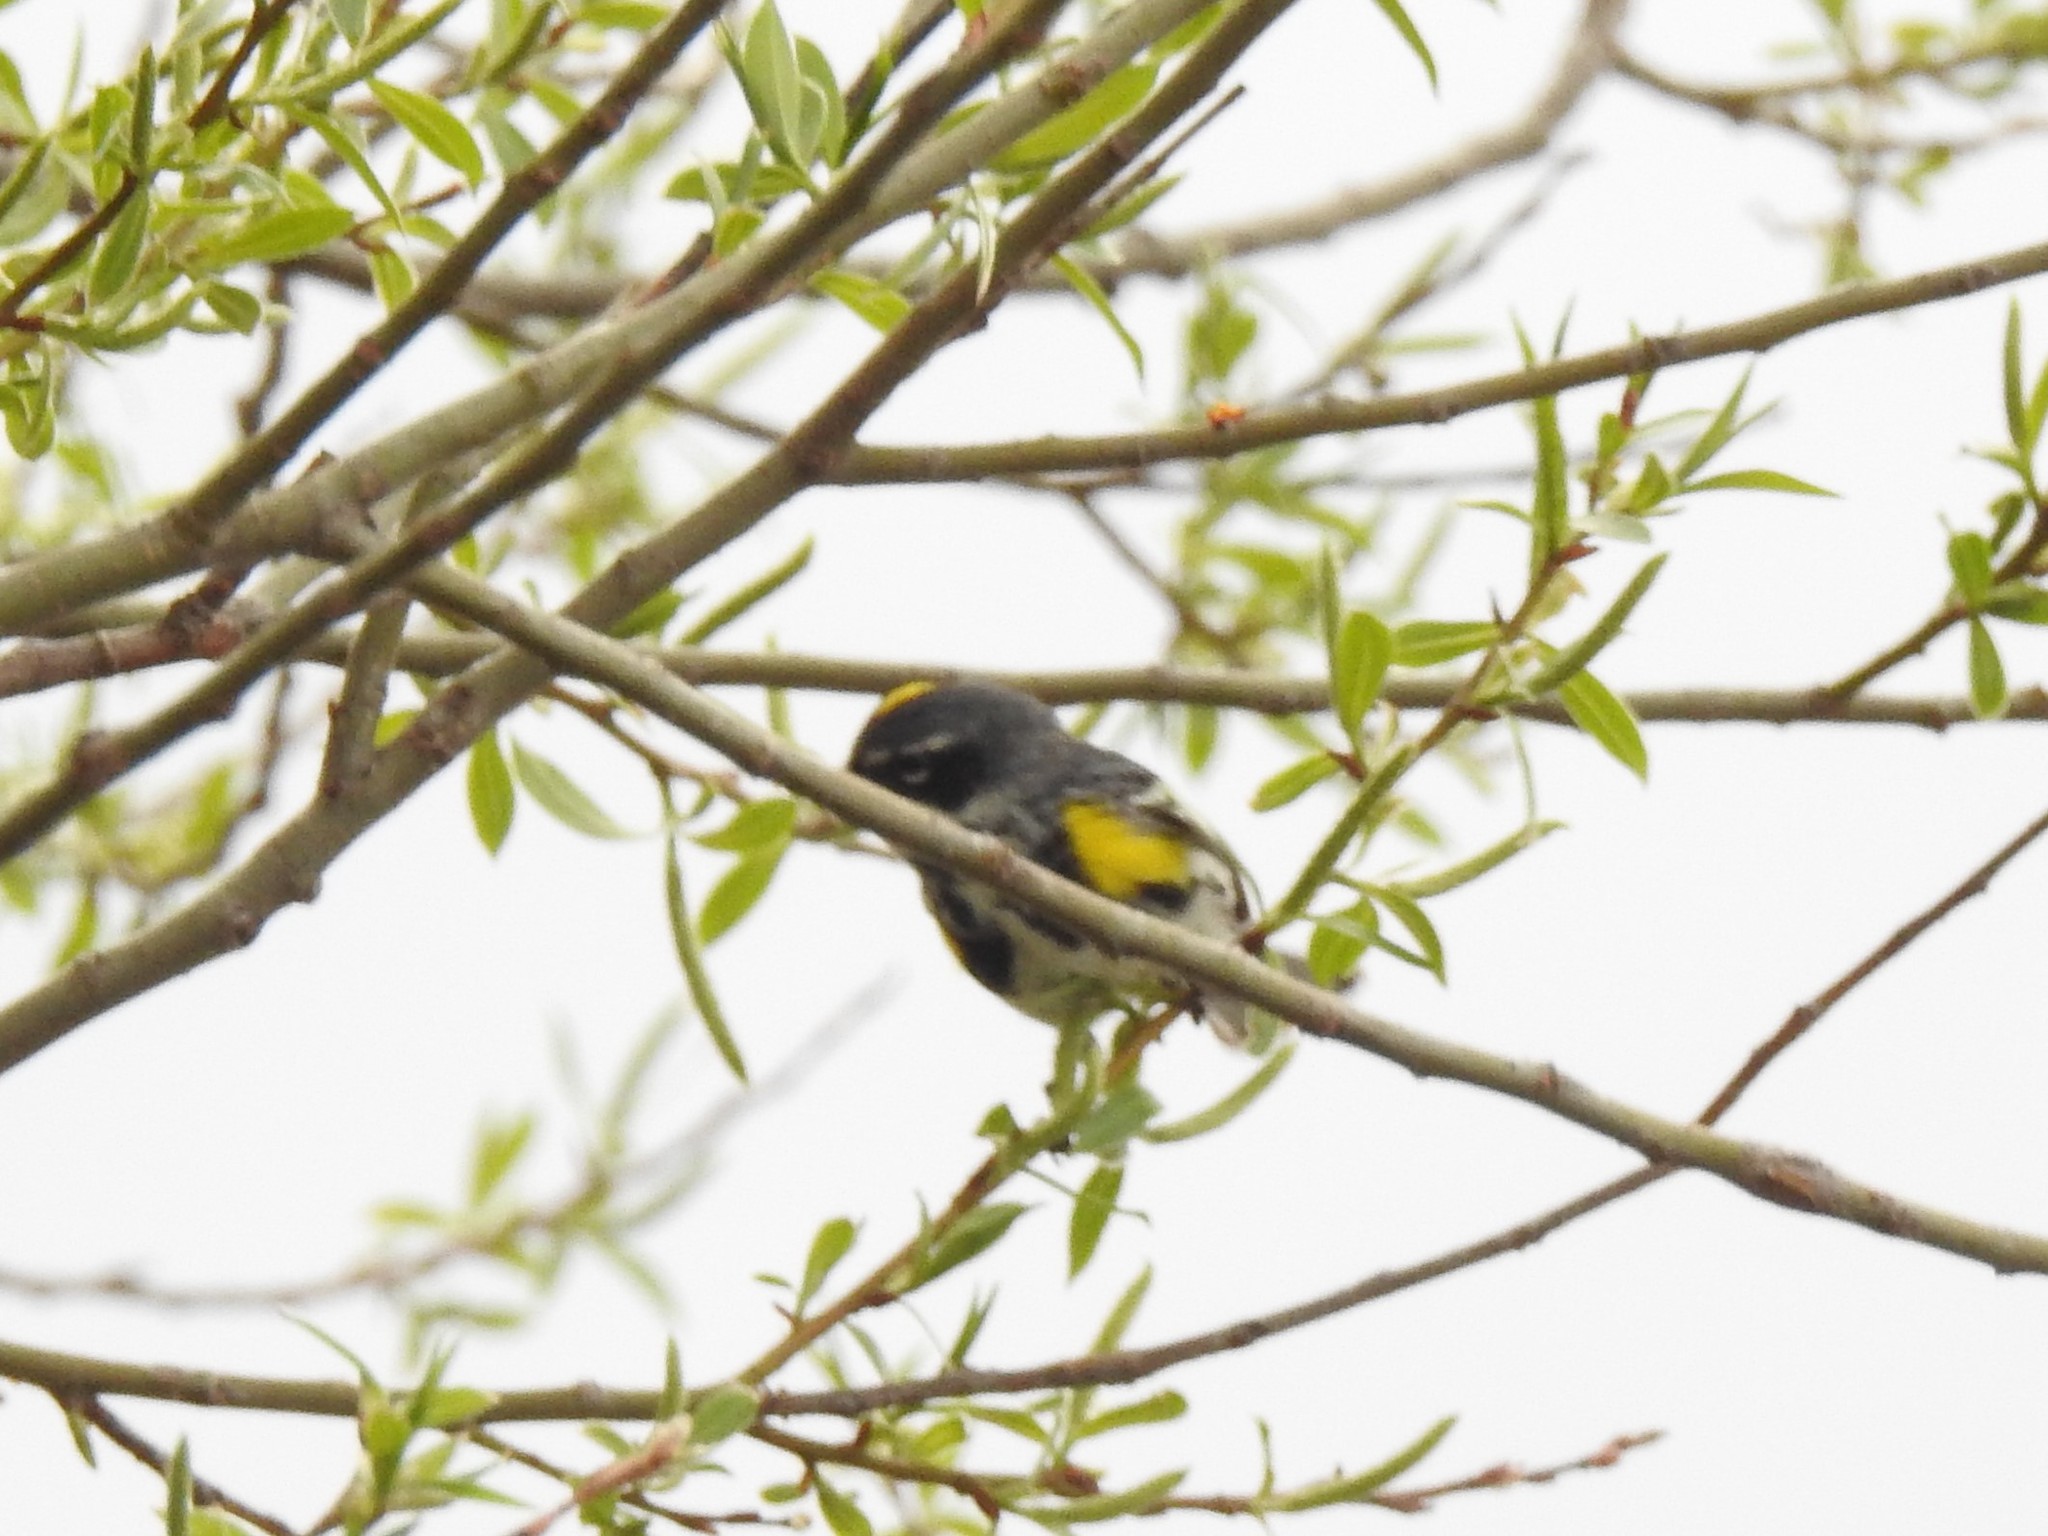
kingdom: Animalia
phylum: Chordata
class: Aves
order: Passeriformes
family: Parulidae
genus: Setophaga
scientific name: Setophaga coronata
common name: Myrtle warbler
